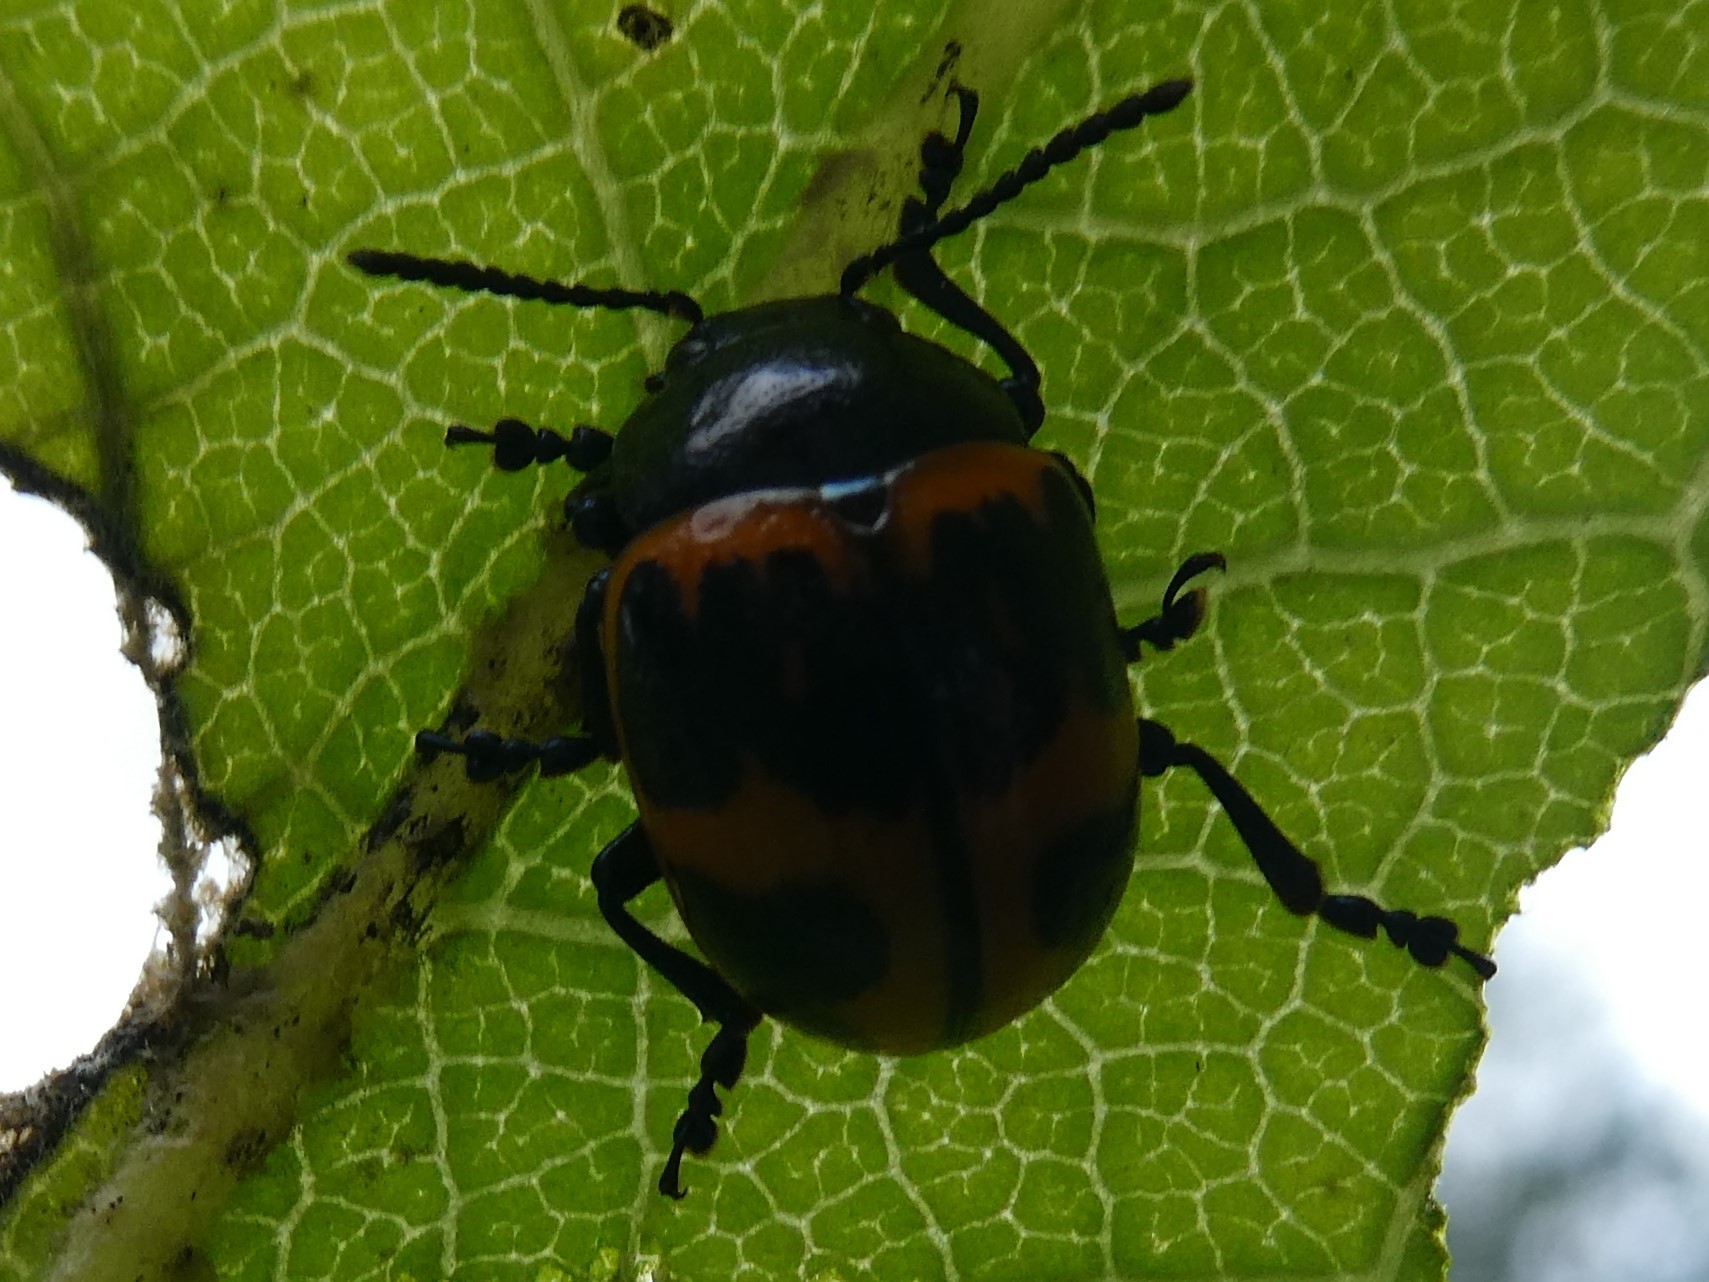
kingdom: Animalia
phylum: Arthropoda
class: Insecta
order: Coleoptera
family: Chrysomelidae
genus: Labidomera
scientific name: Labidomera clivicollis
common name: Swamp milkweed leaf beetle
